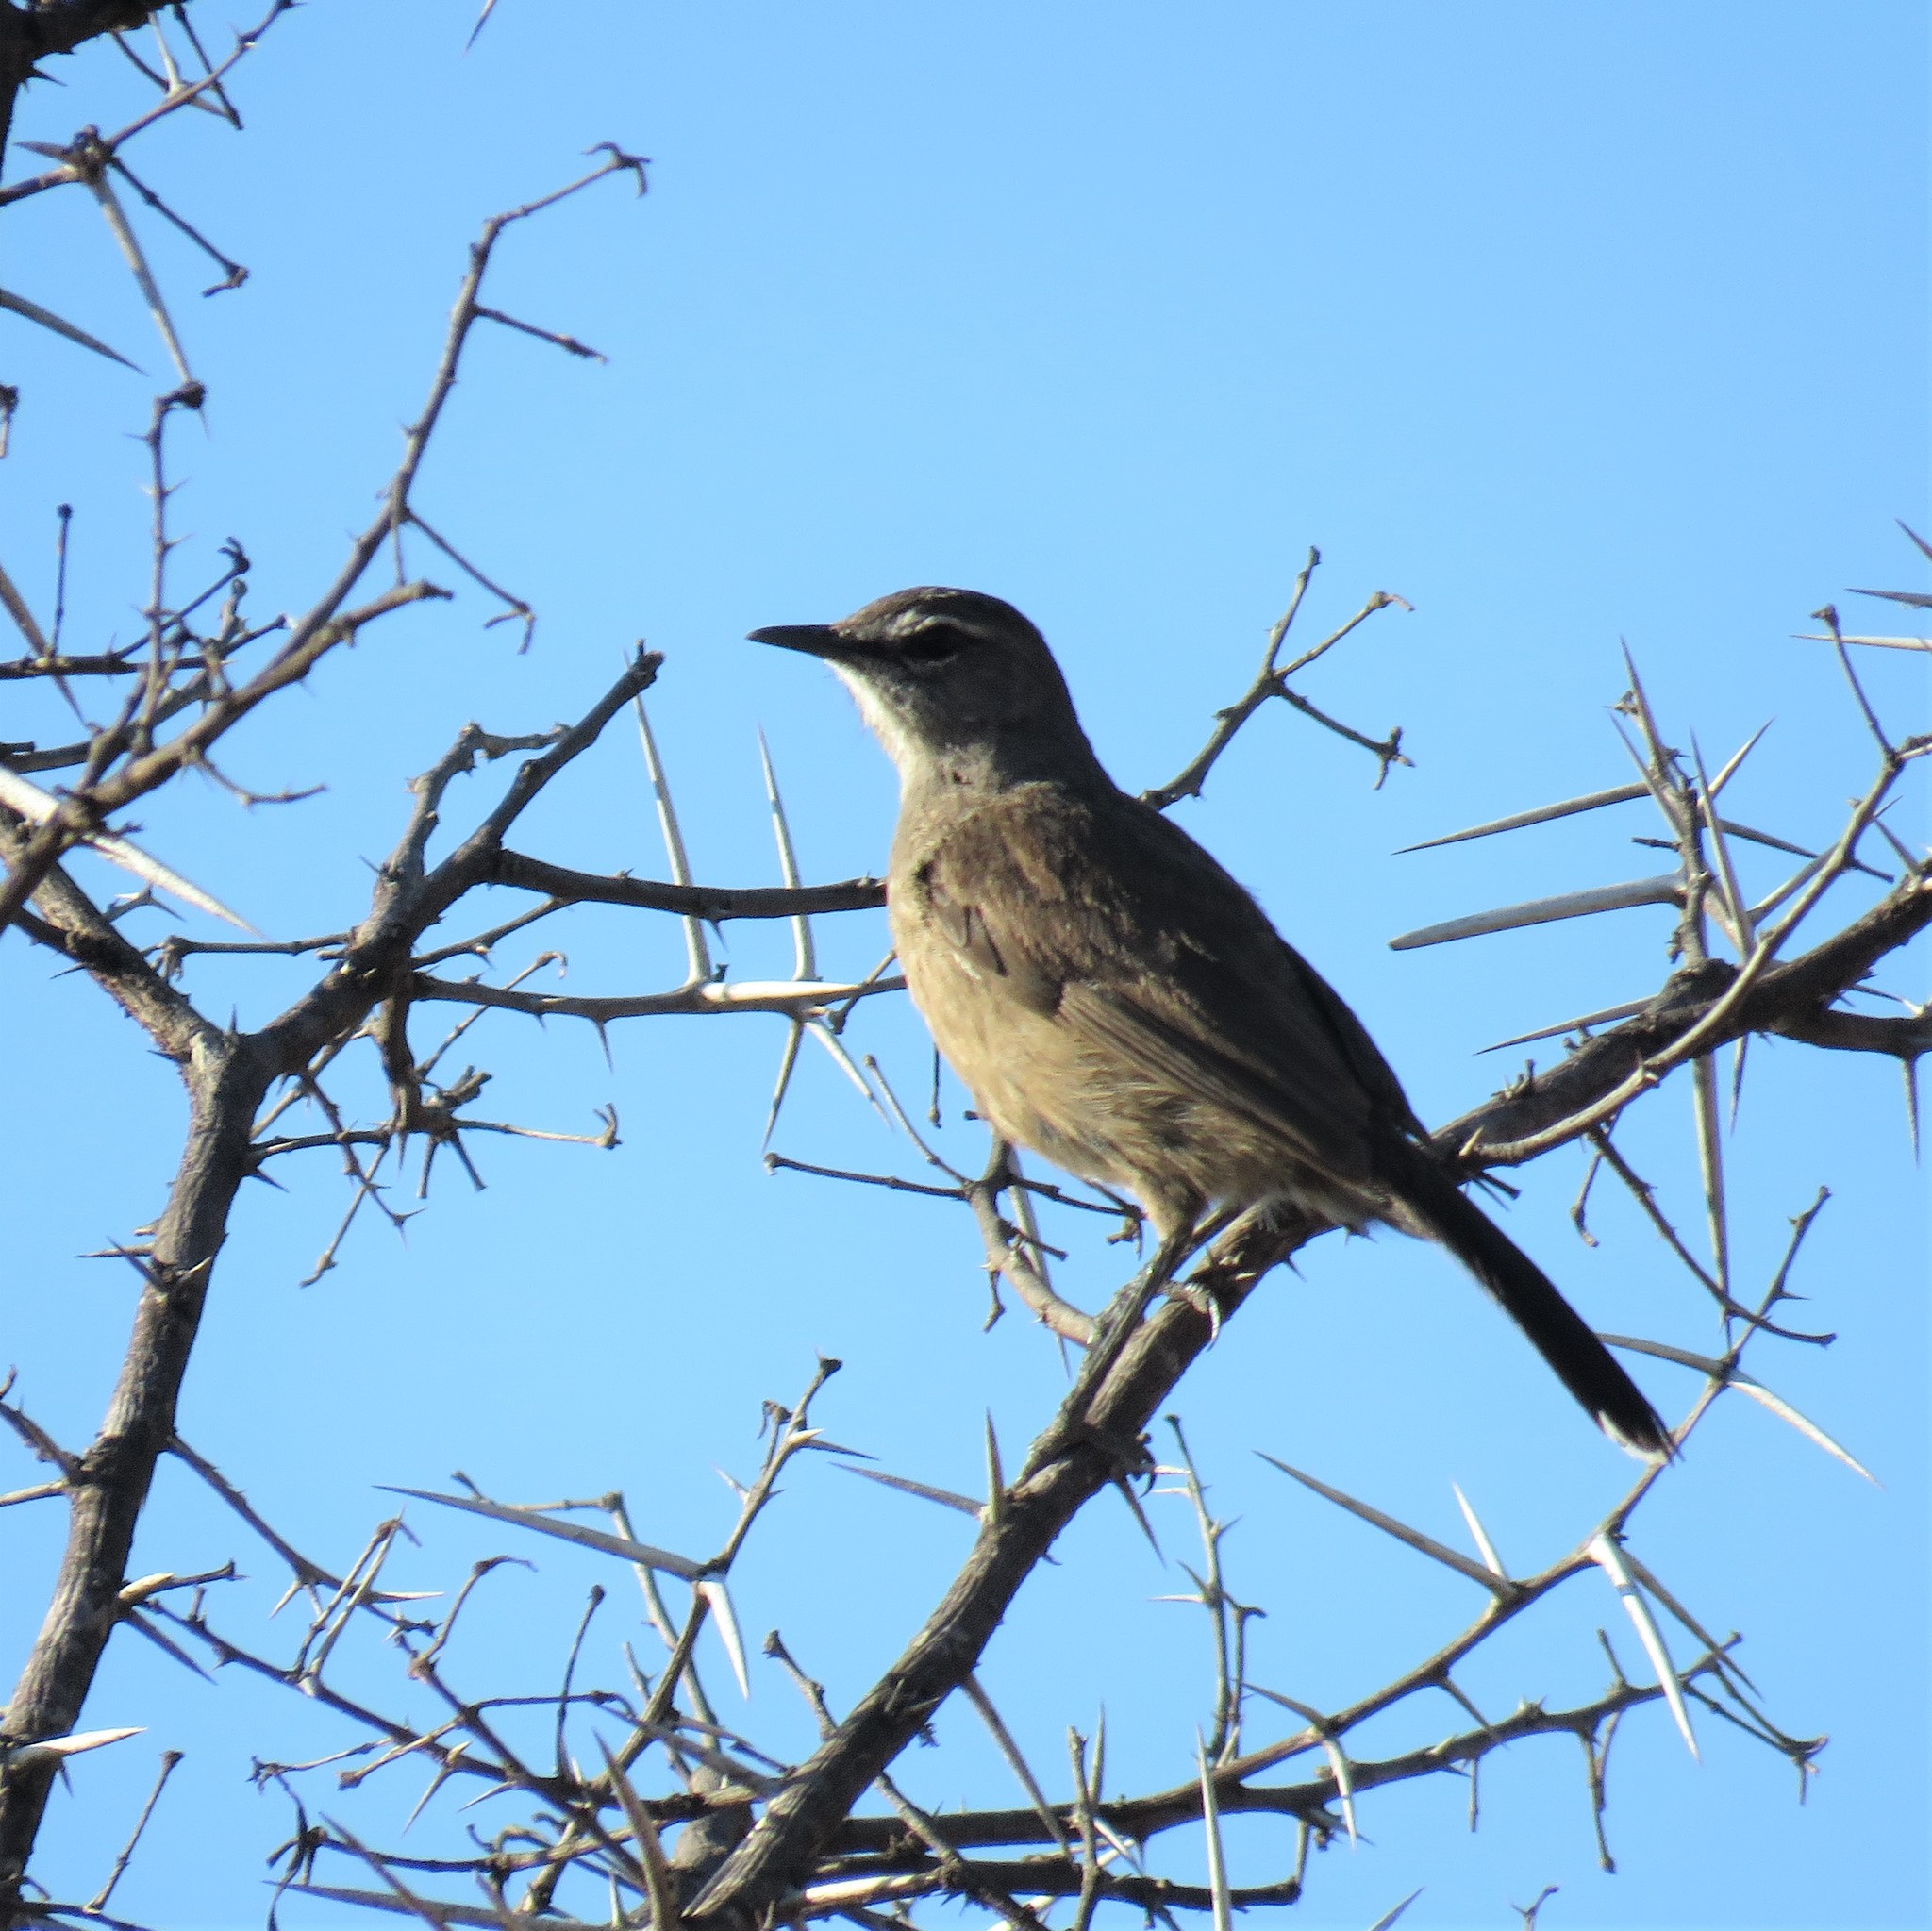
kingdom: Animalia
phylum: Chordata
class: Aves
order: Passeriformes
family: Muscicapidae
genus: Erythropygia
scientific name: Erythropygia coryphoeus
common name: Karoo scrub robin
